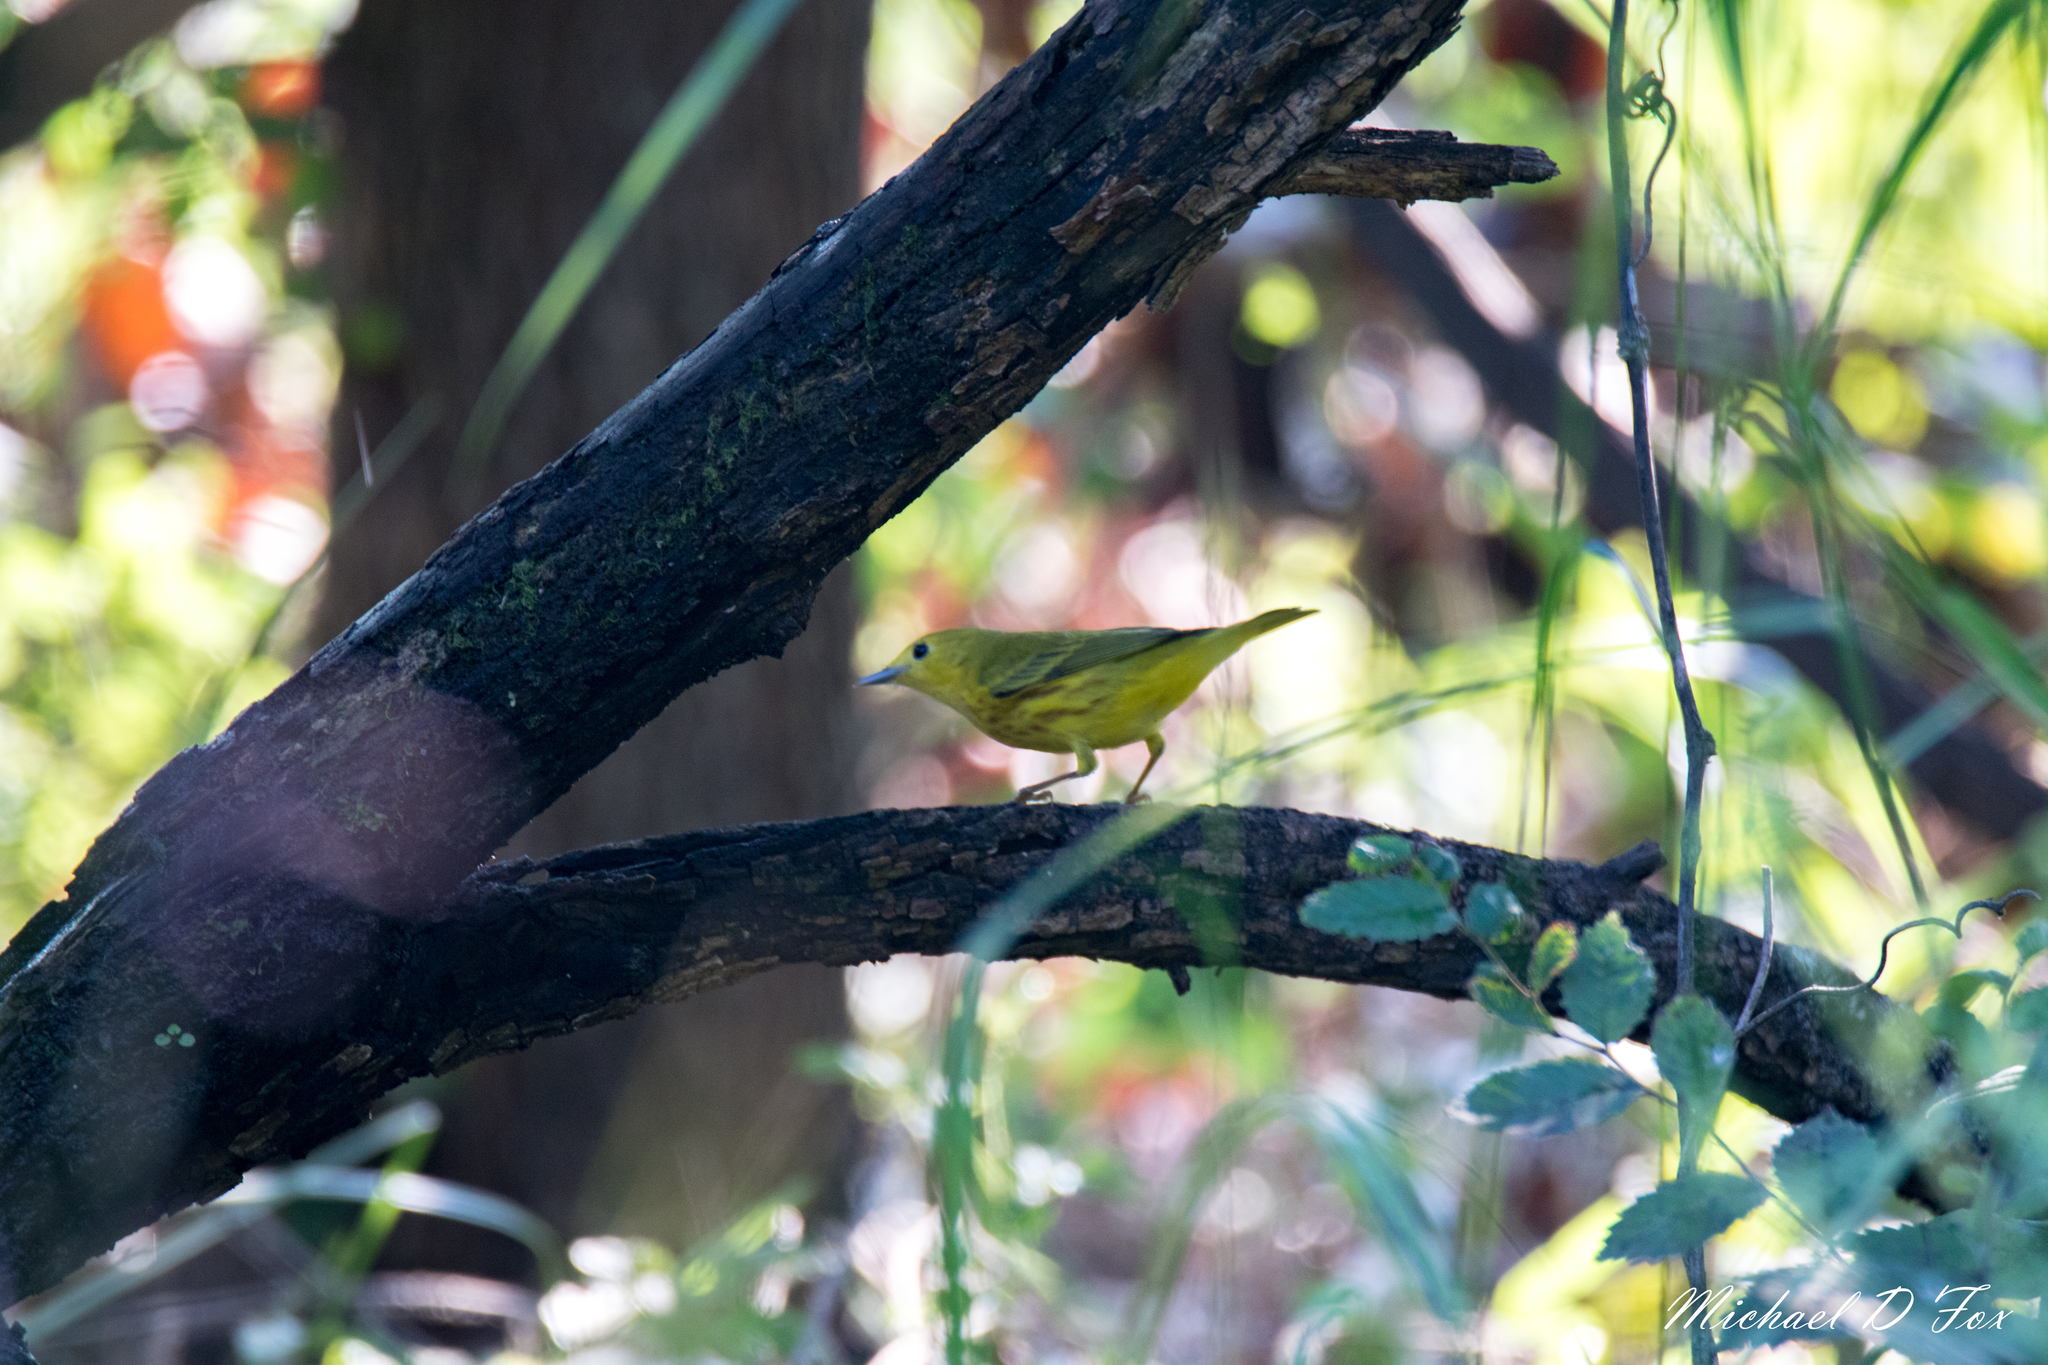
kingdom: Animalia
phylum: Chordata
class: Aves
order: Passeriformes
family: Parulidae
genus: Setophaga
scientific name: Setophaga petechia
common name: Yellow warbler
